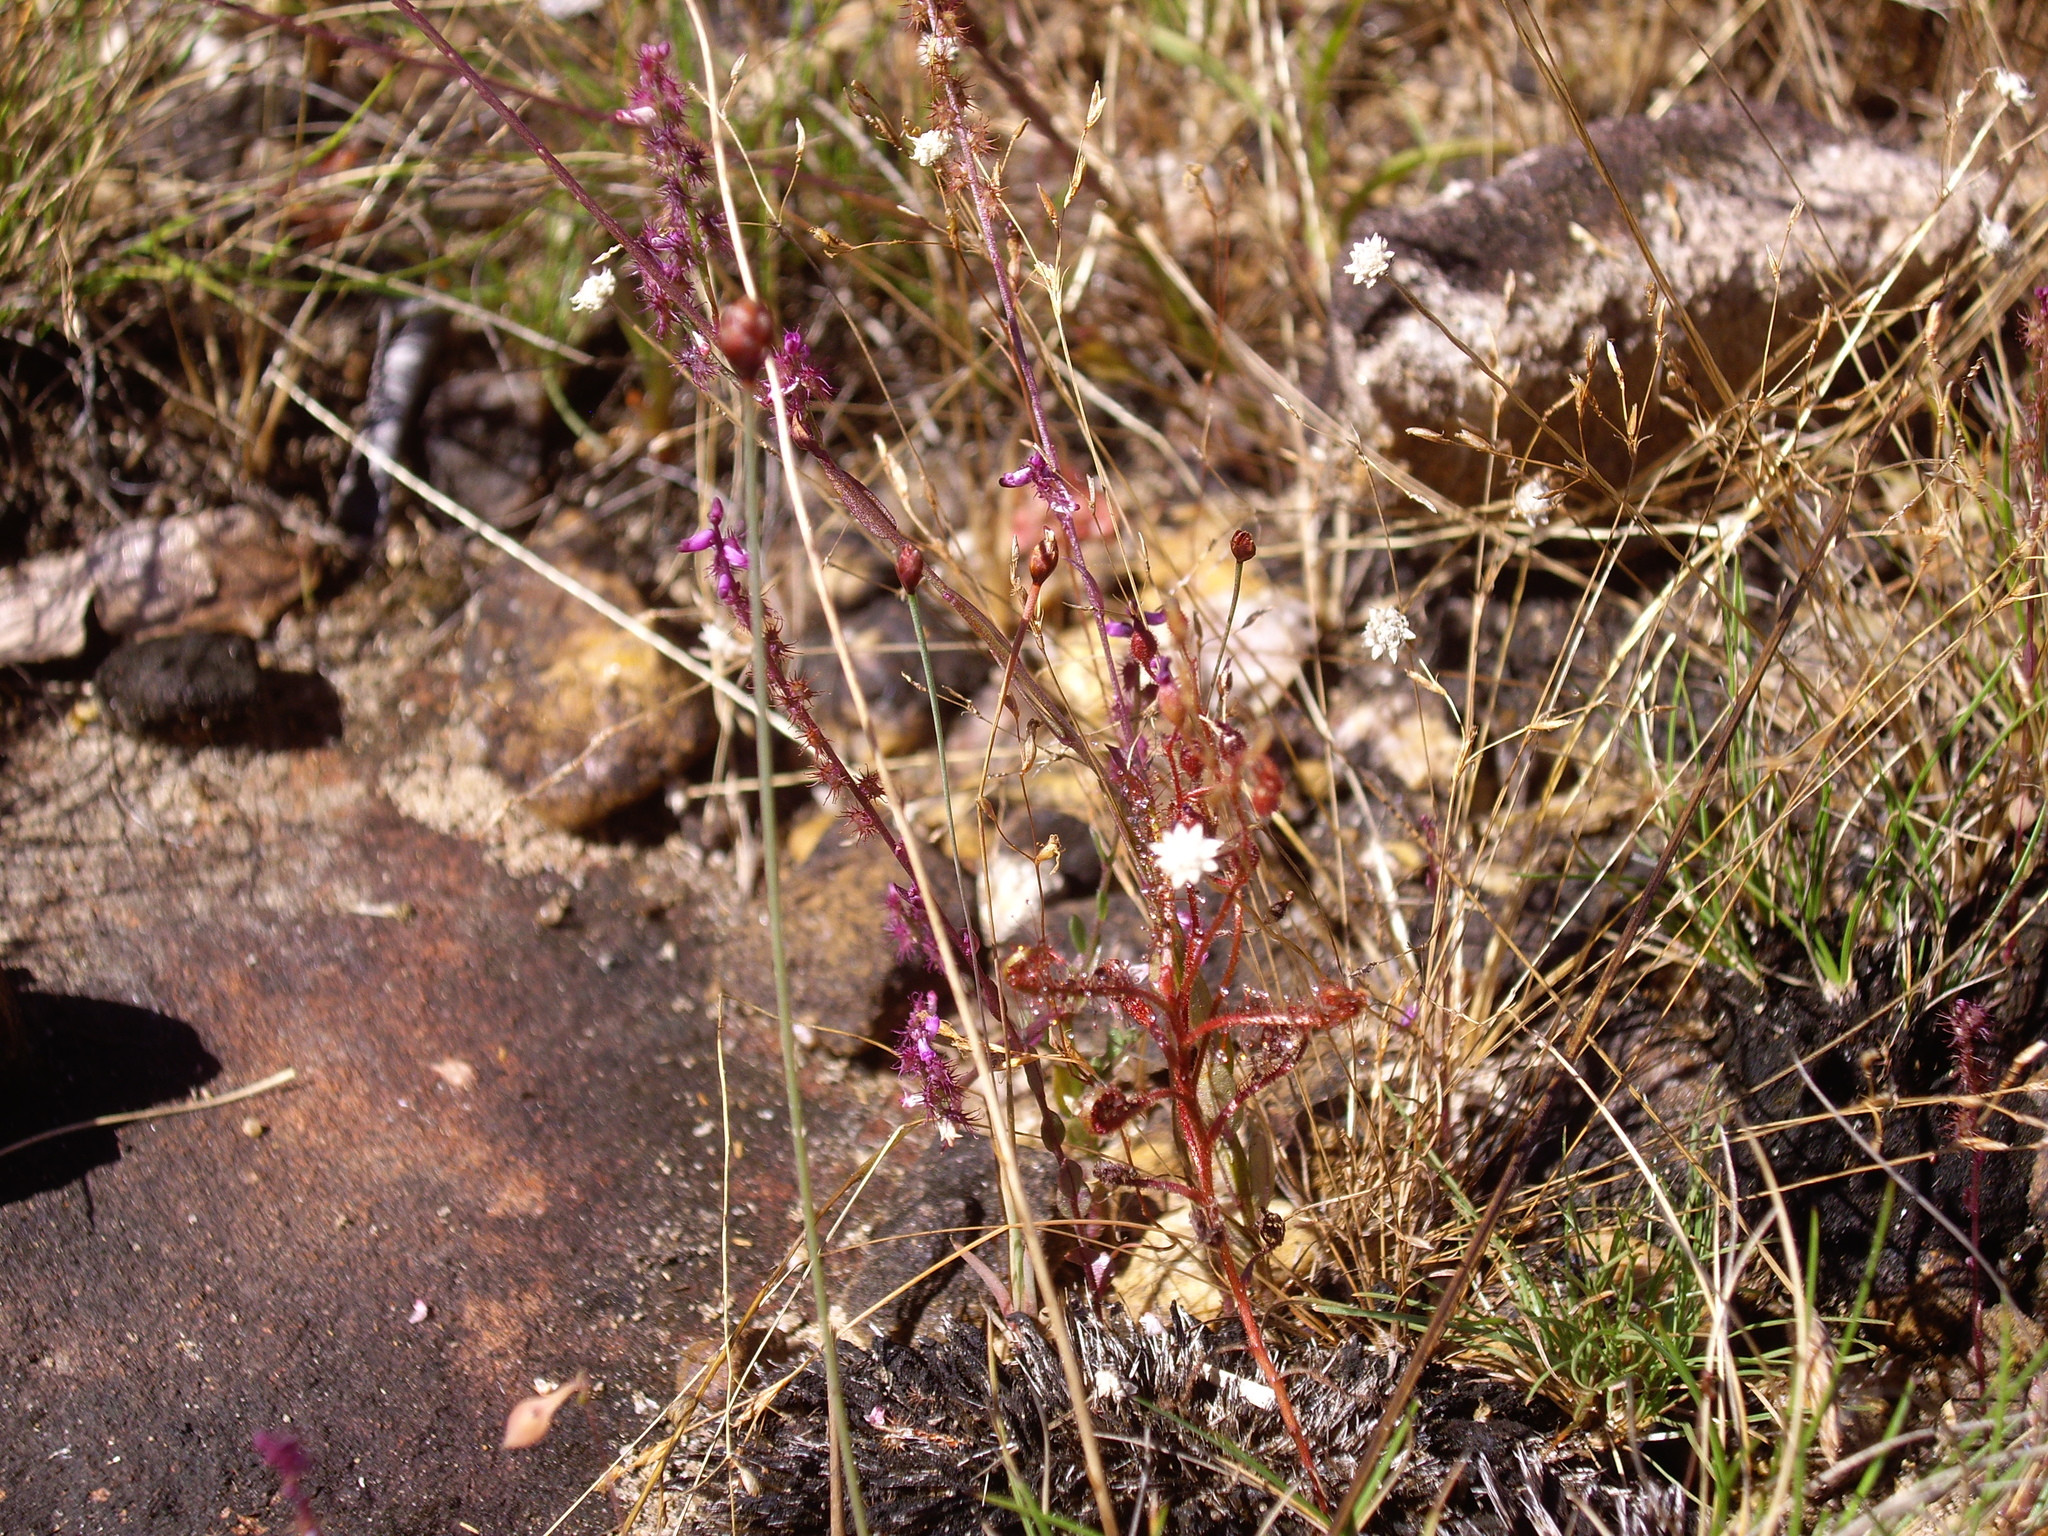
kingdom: Plantae
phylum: Tracheophyta
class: Magnoliopsida
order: Caryophyllales
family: Droseraceae
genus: Drosera
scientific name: Drosera indica
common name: Indian sundew
